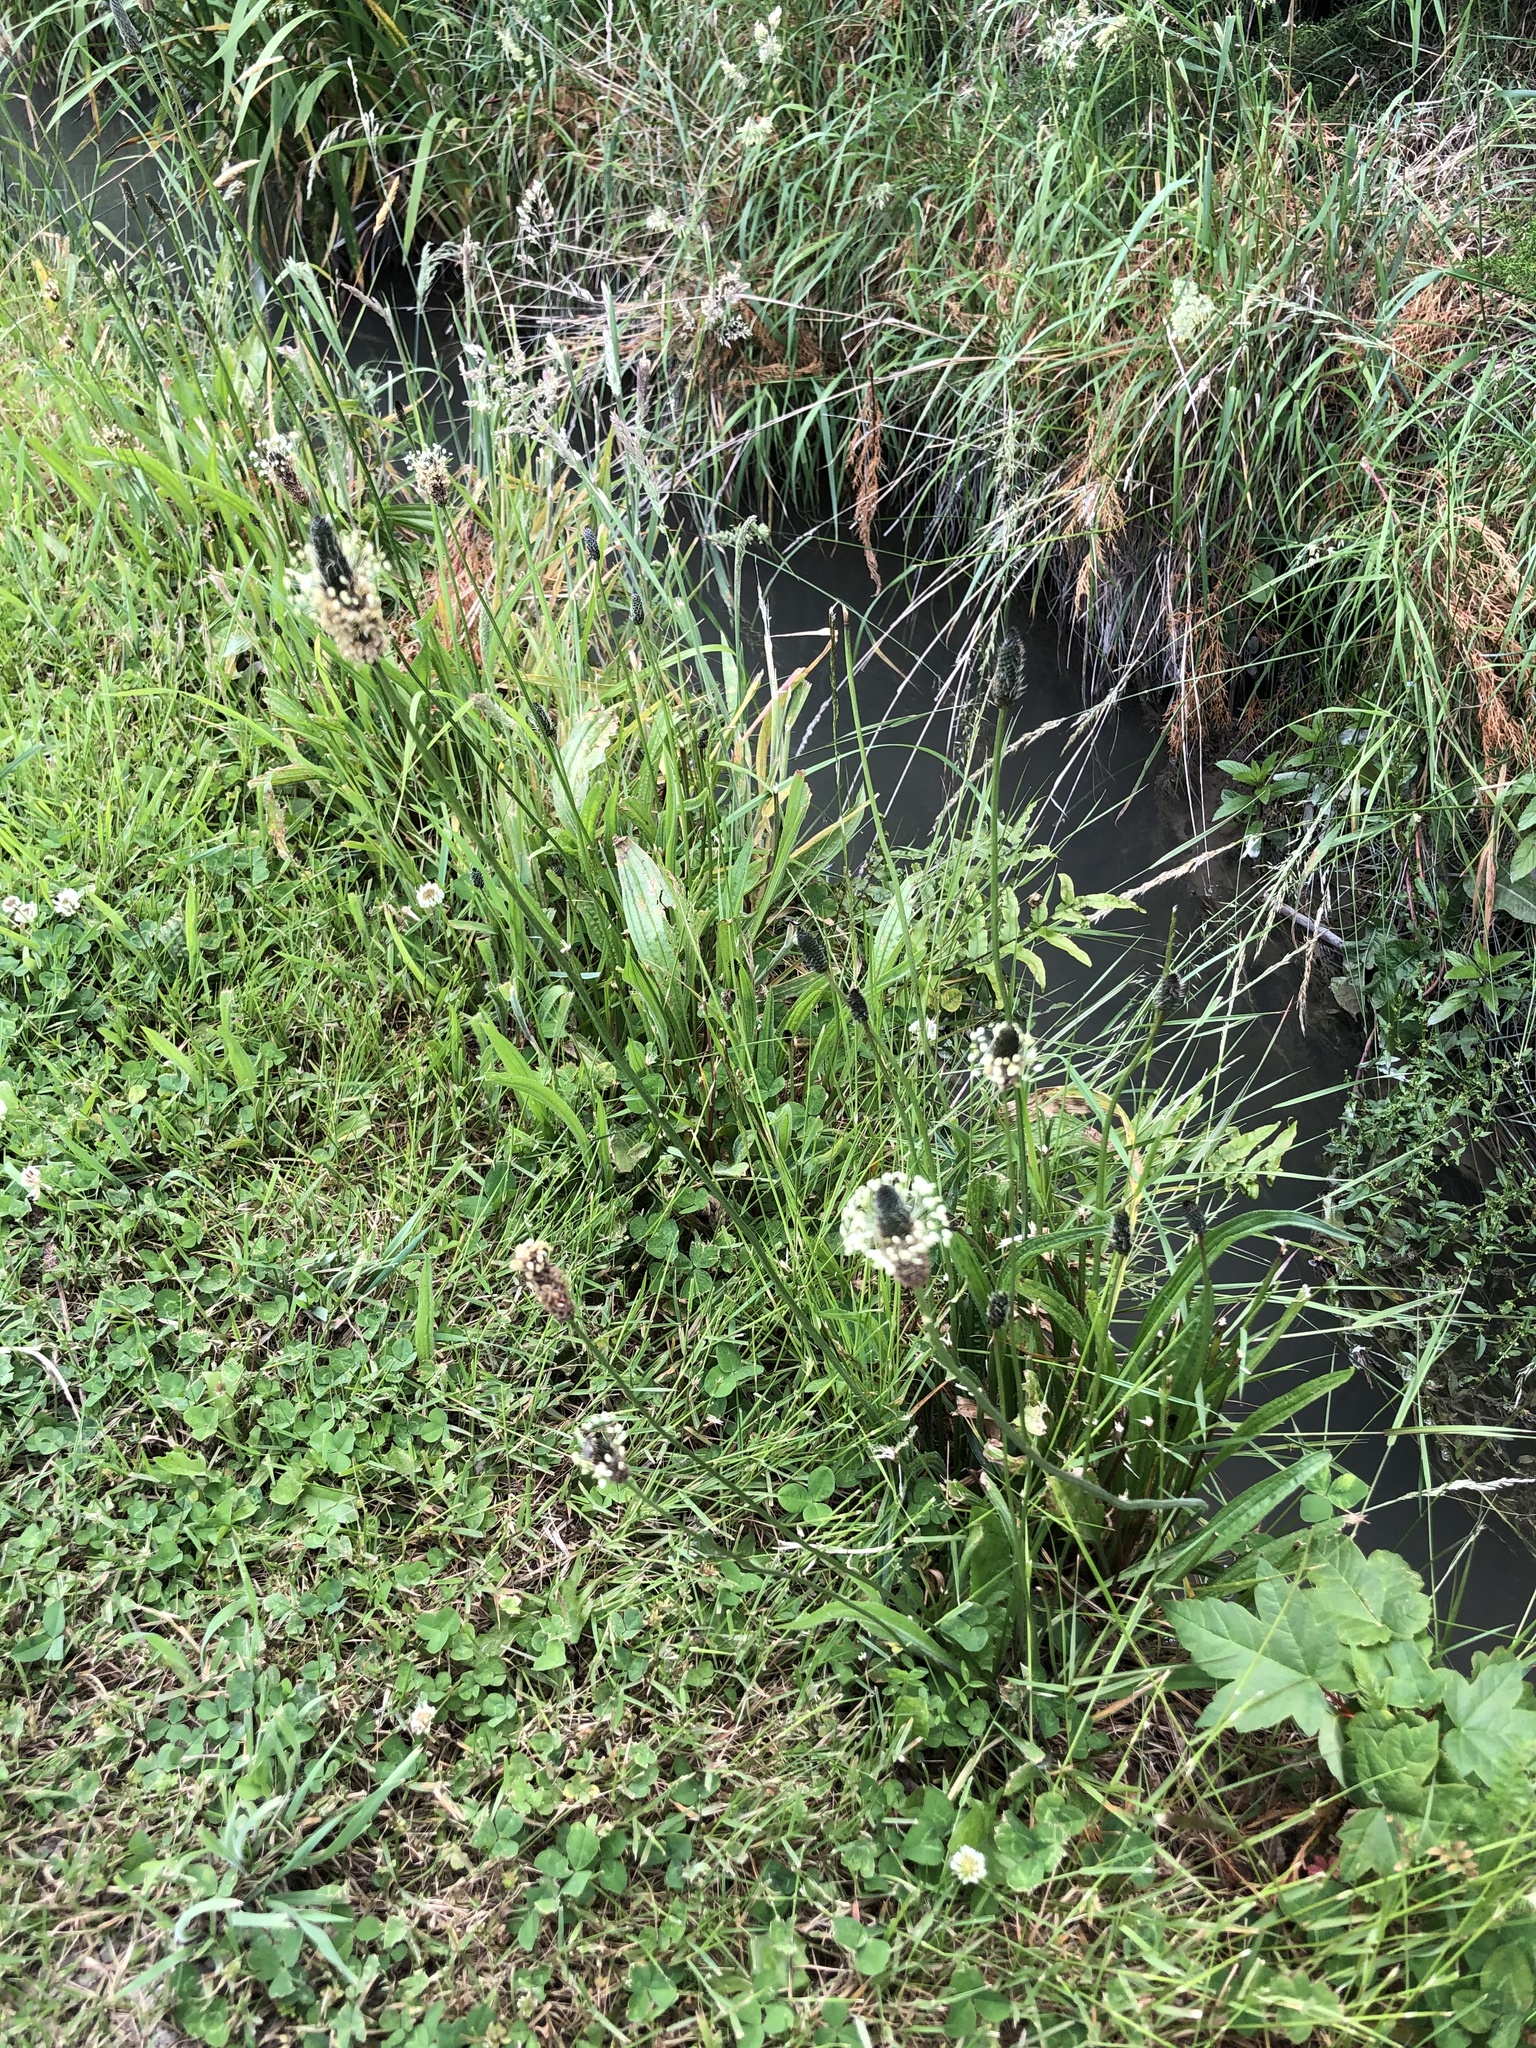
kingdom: Plantae
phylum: Tracheophyta
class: Magnoliopsida
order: Lamiales
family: Plantaginaceae
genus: Plantago
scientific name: Plantago lanceolata
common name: Ribwort plantain
